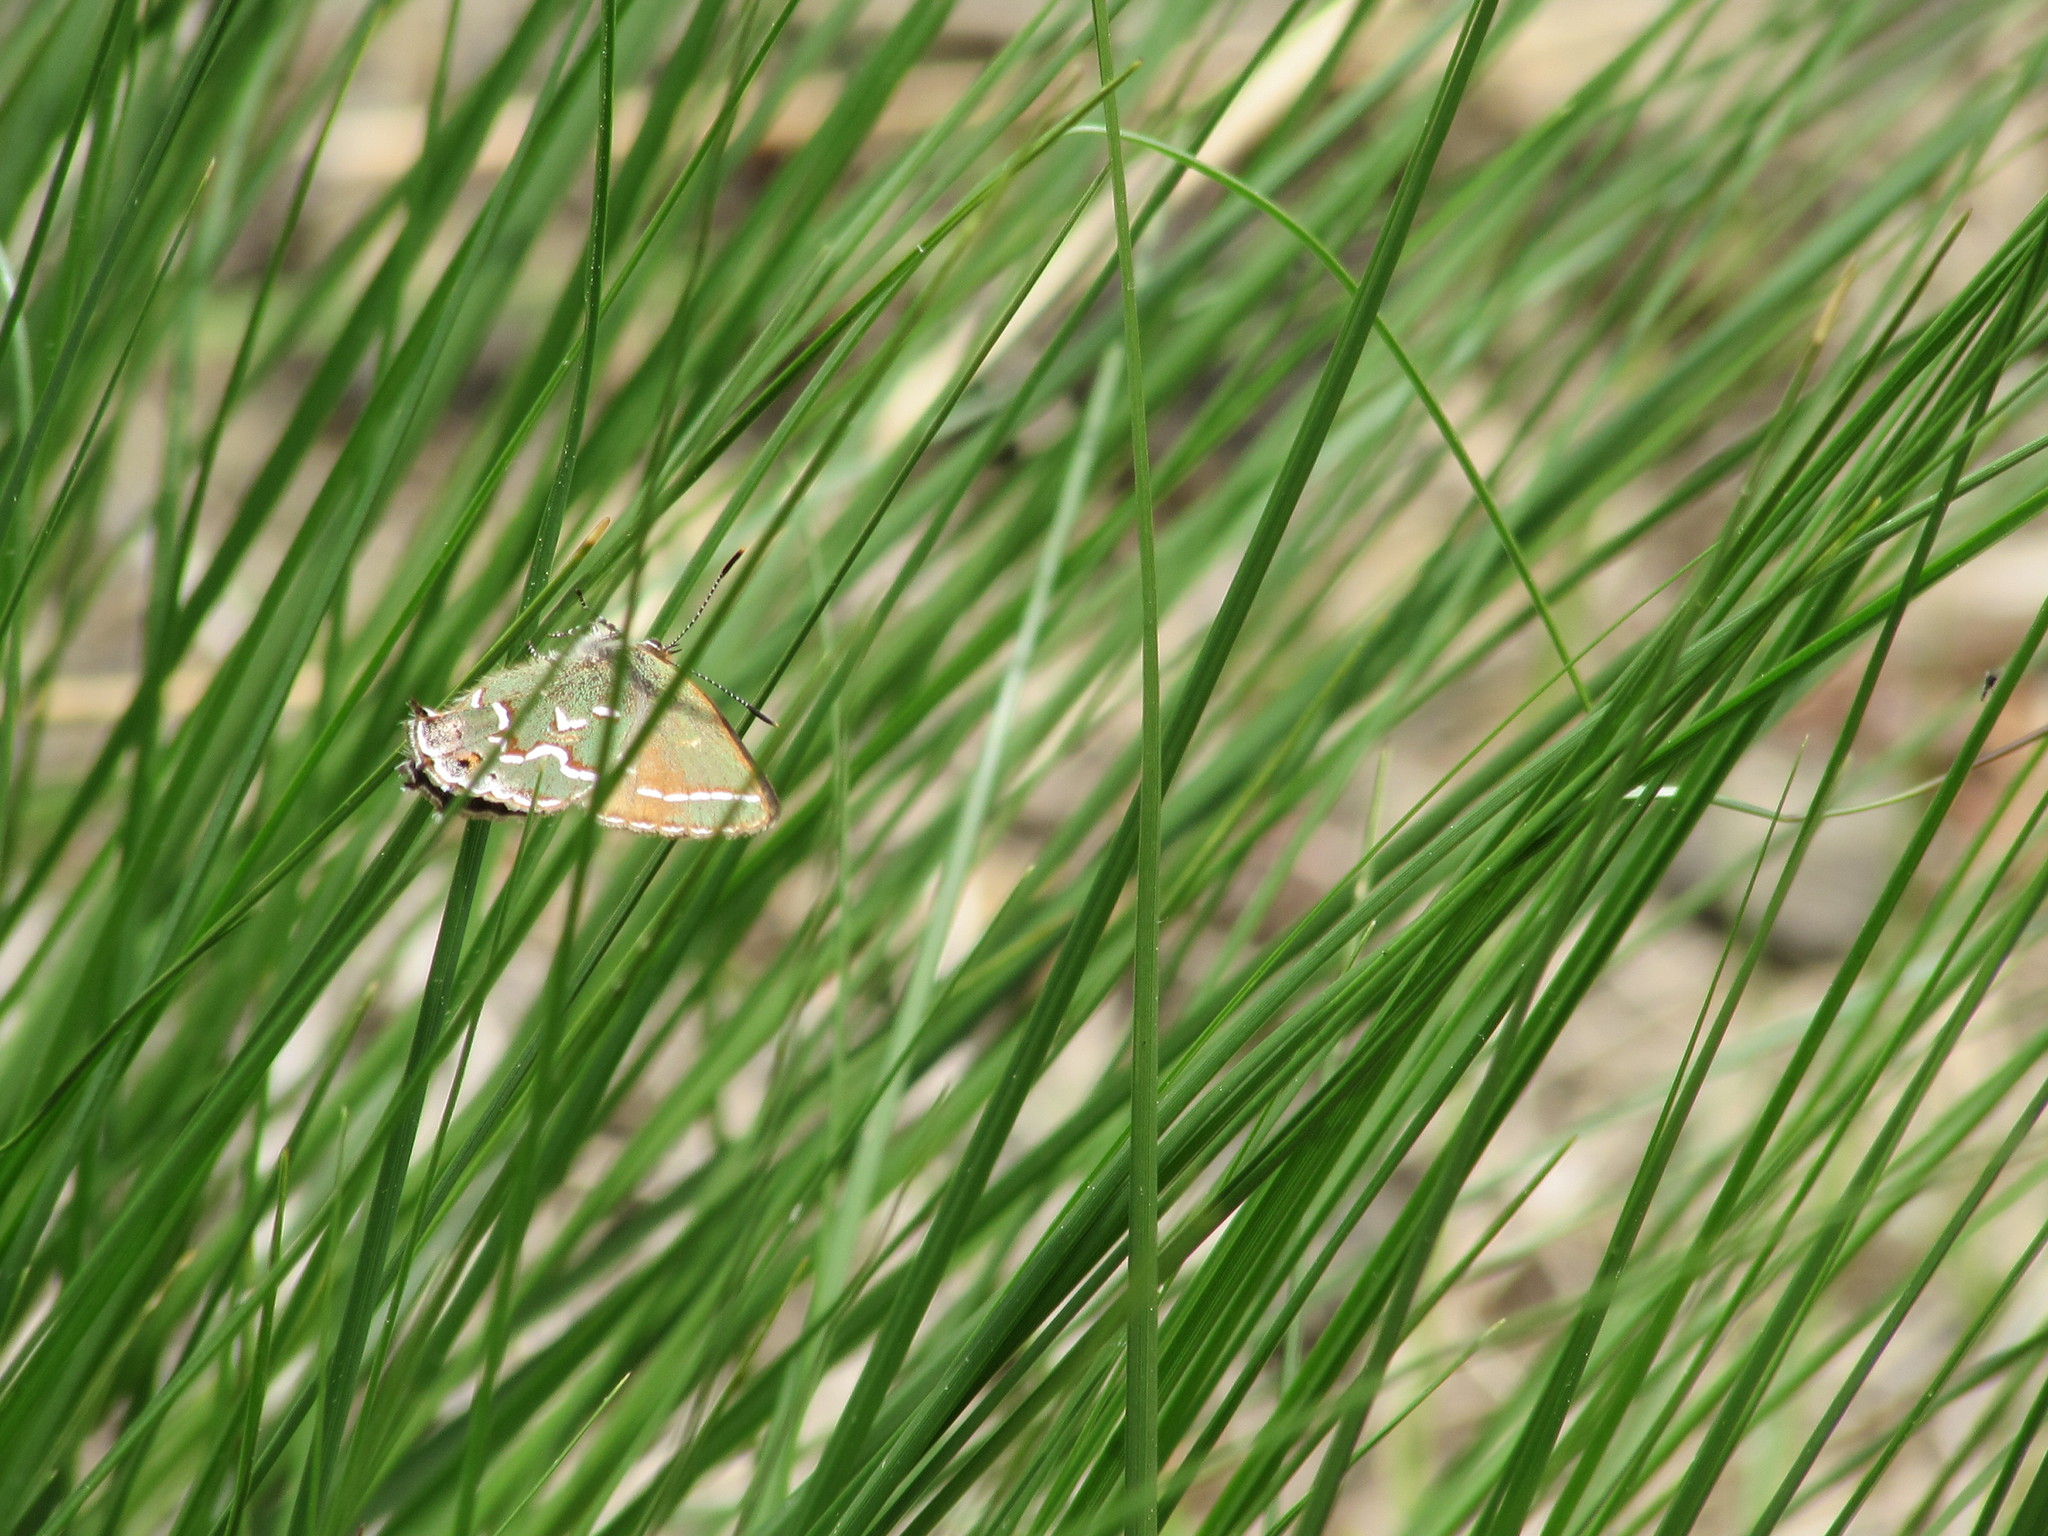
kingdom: Animalia
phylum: Arthropoda
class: Insecta
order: Lepidoptera
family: Lycaenidae
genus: Mitoura
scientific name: Mitoura gryneus
